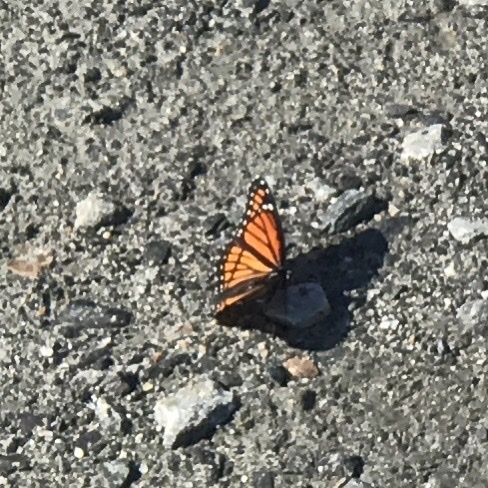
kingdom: Animalia
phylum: Arthropoda
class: Insecta
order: Lepidoptera
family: Nymphalidae
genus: Limenitis
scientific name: Limenitis archippus
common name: Viceroy
